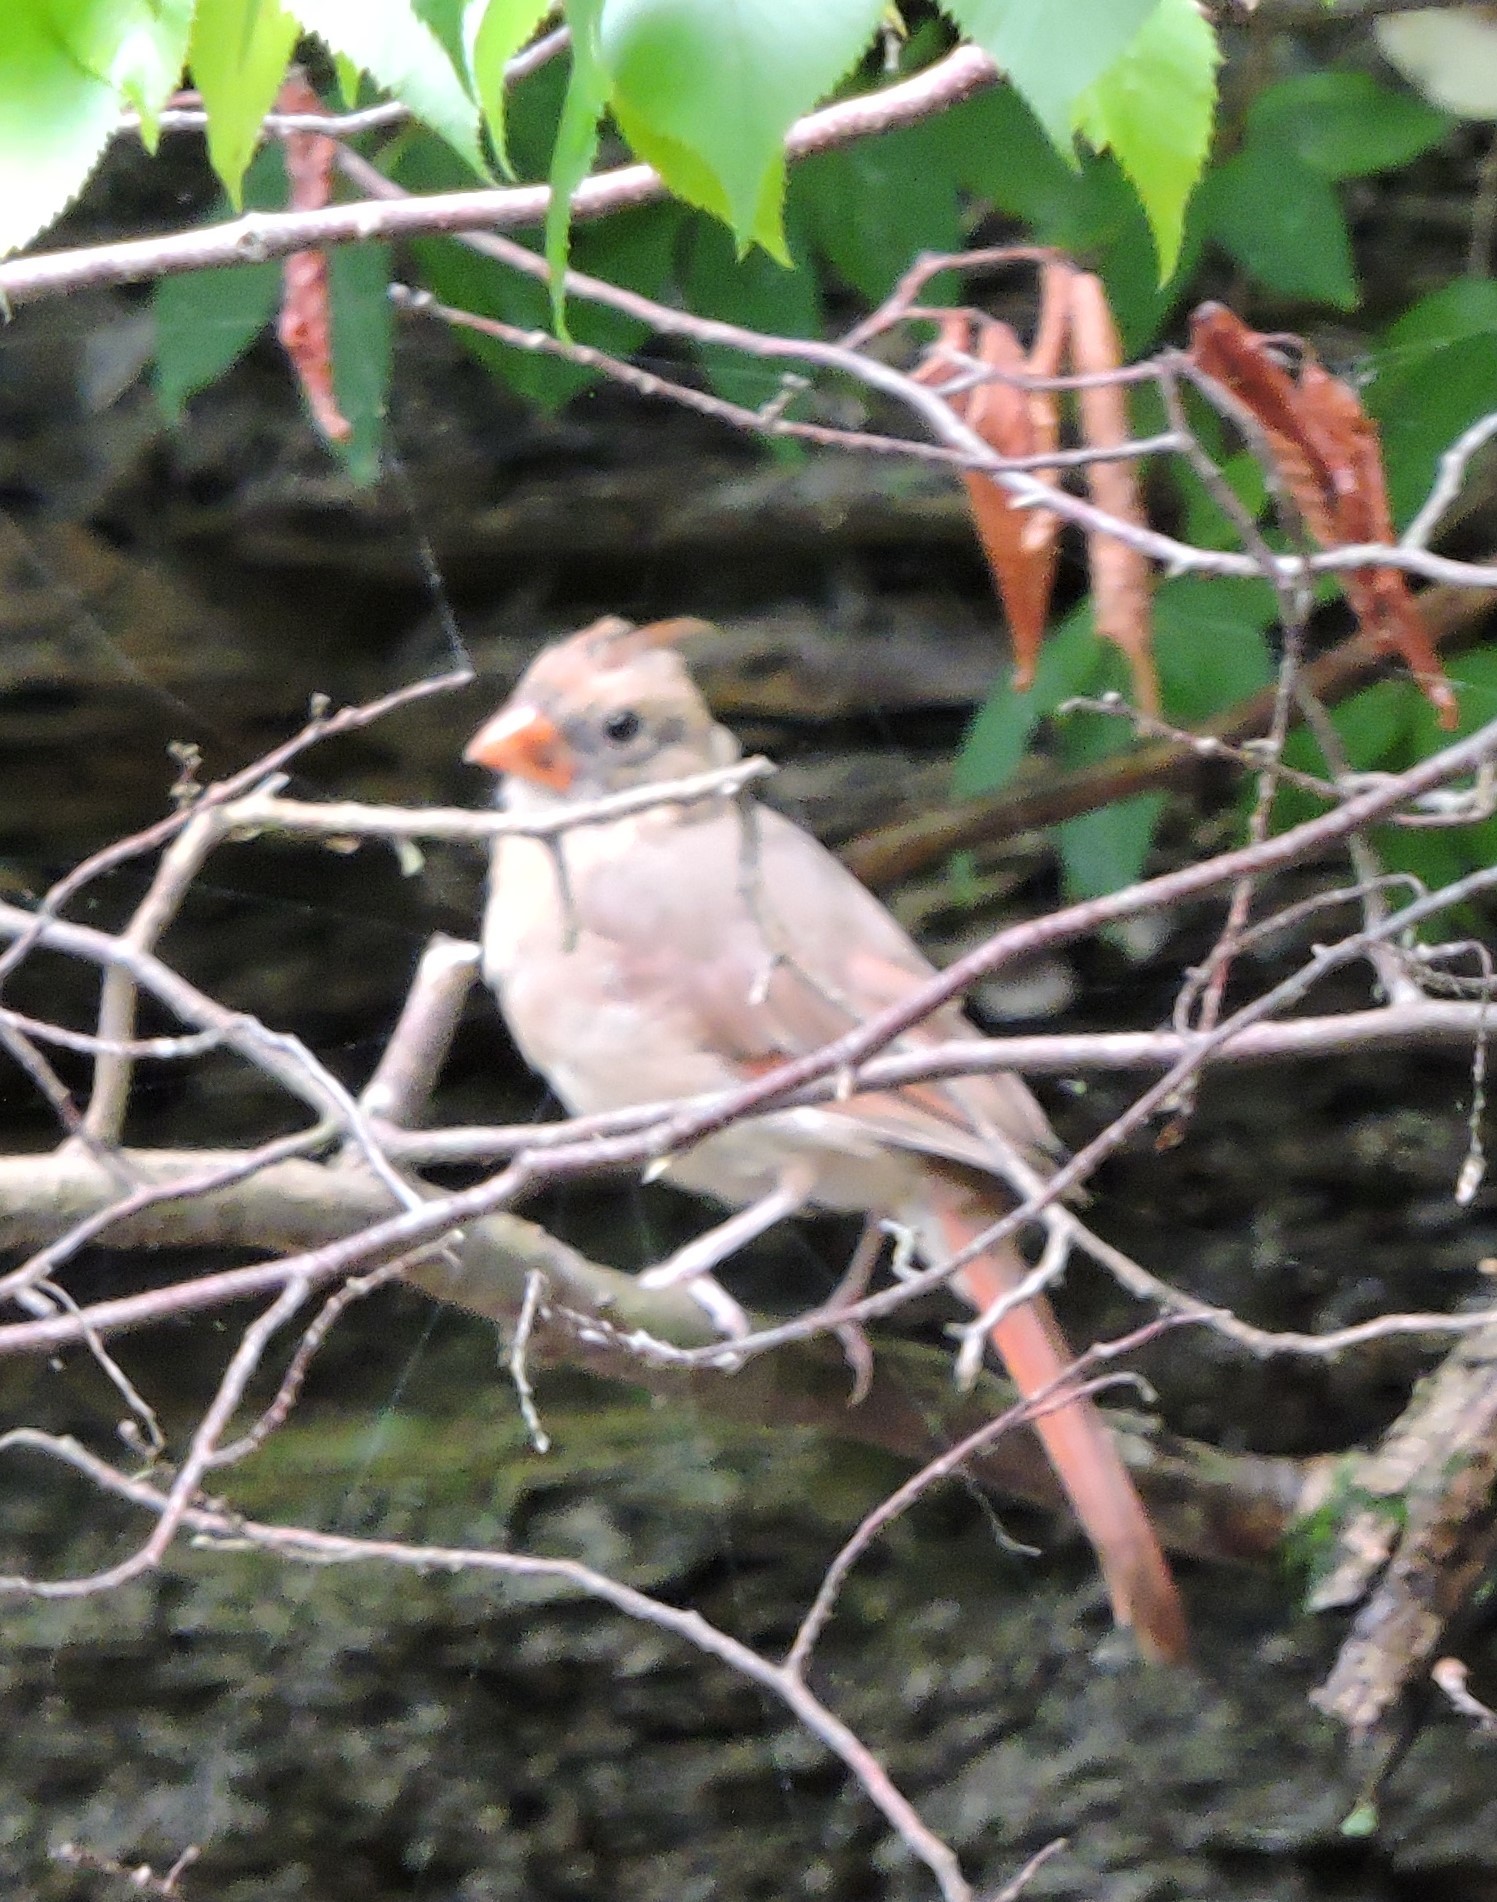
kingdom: Animalia
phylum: Chordata
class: Aves
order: Passeriformes
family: Cardinalidae
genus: Cardinalis
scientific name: Cardinalis cardinalis
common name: Northern cardinal
